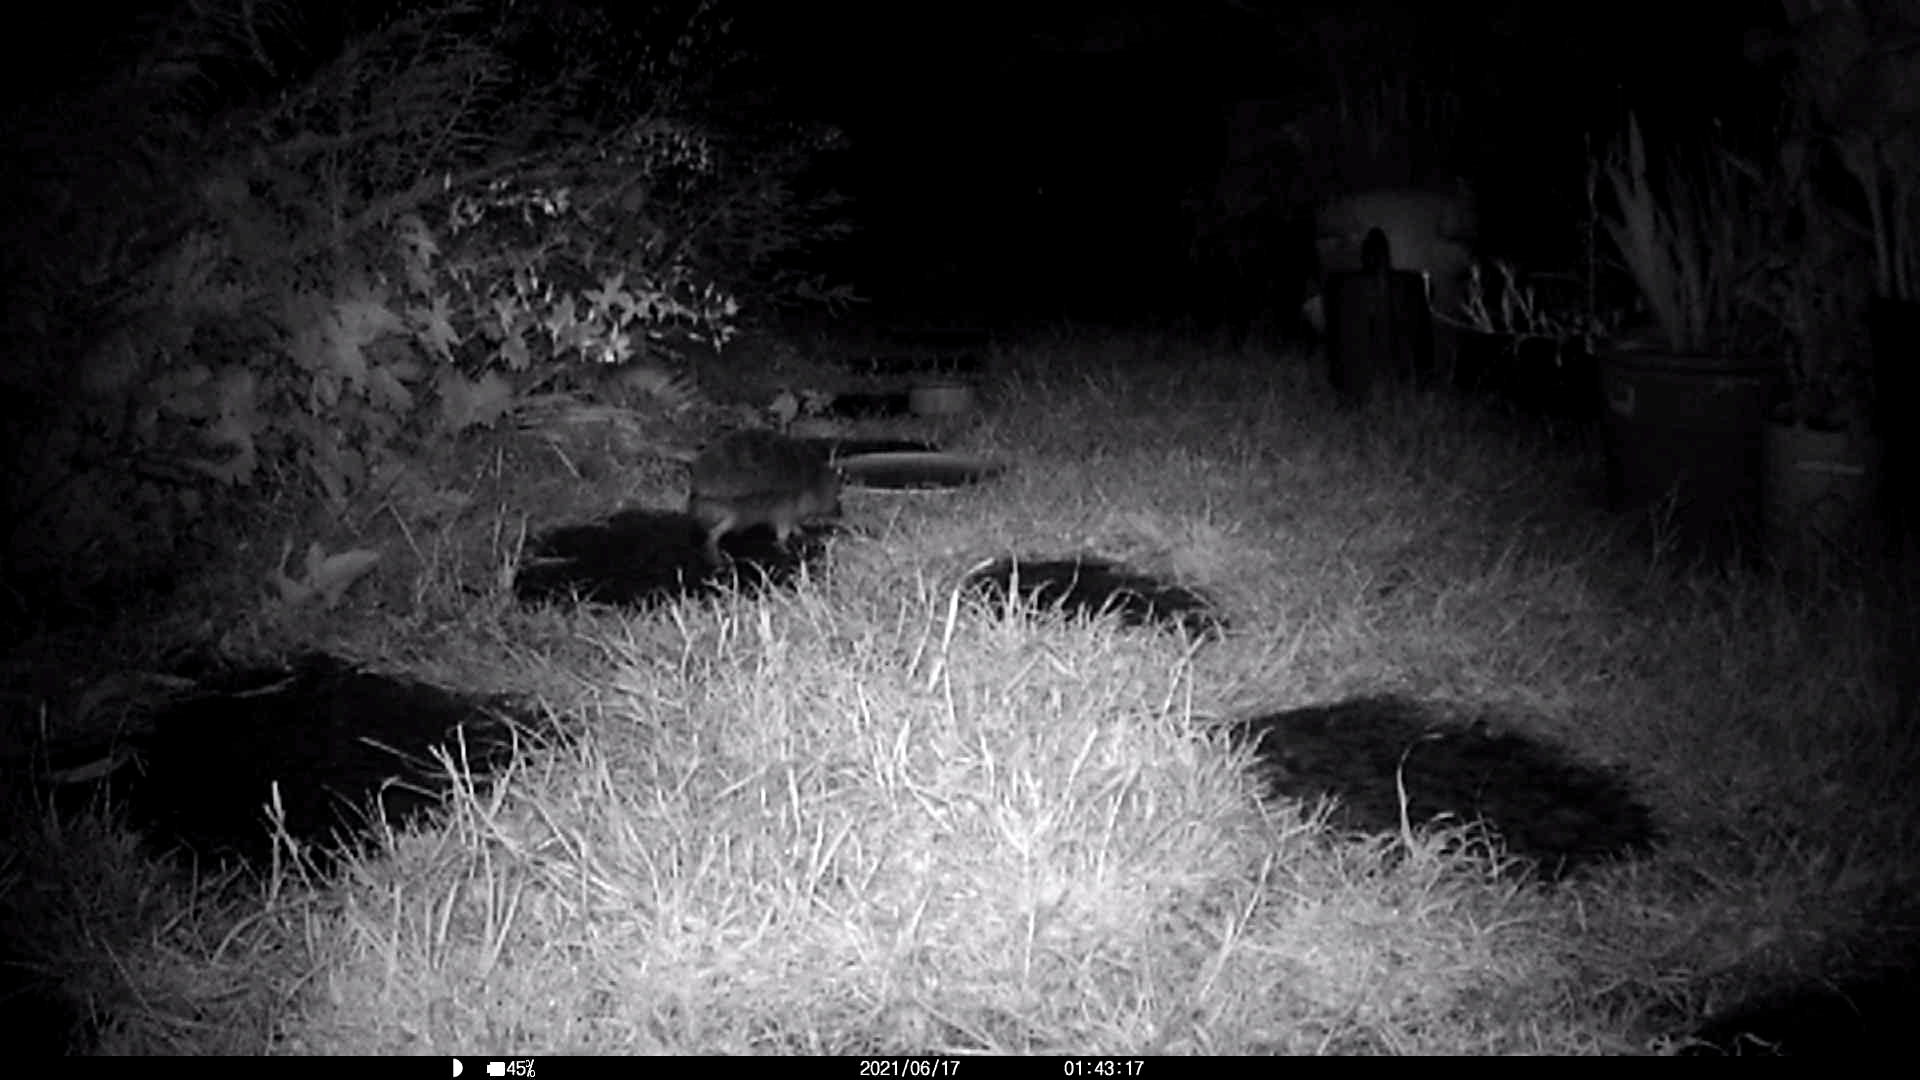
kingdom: Animalia
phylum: Chordata
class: Mammalia
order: Erinaceomorpha
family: Erinaceidae
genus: Erinaceus
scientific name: Erinaceus europaeus
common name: West european hedgehog
